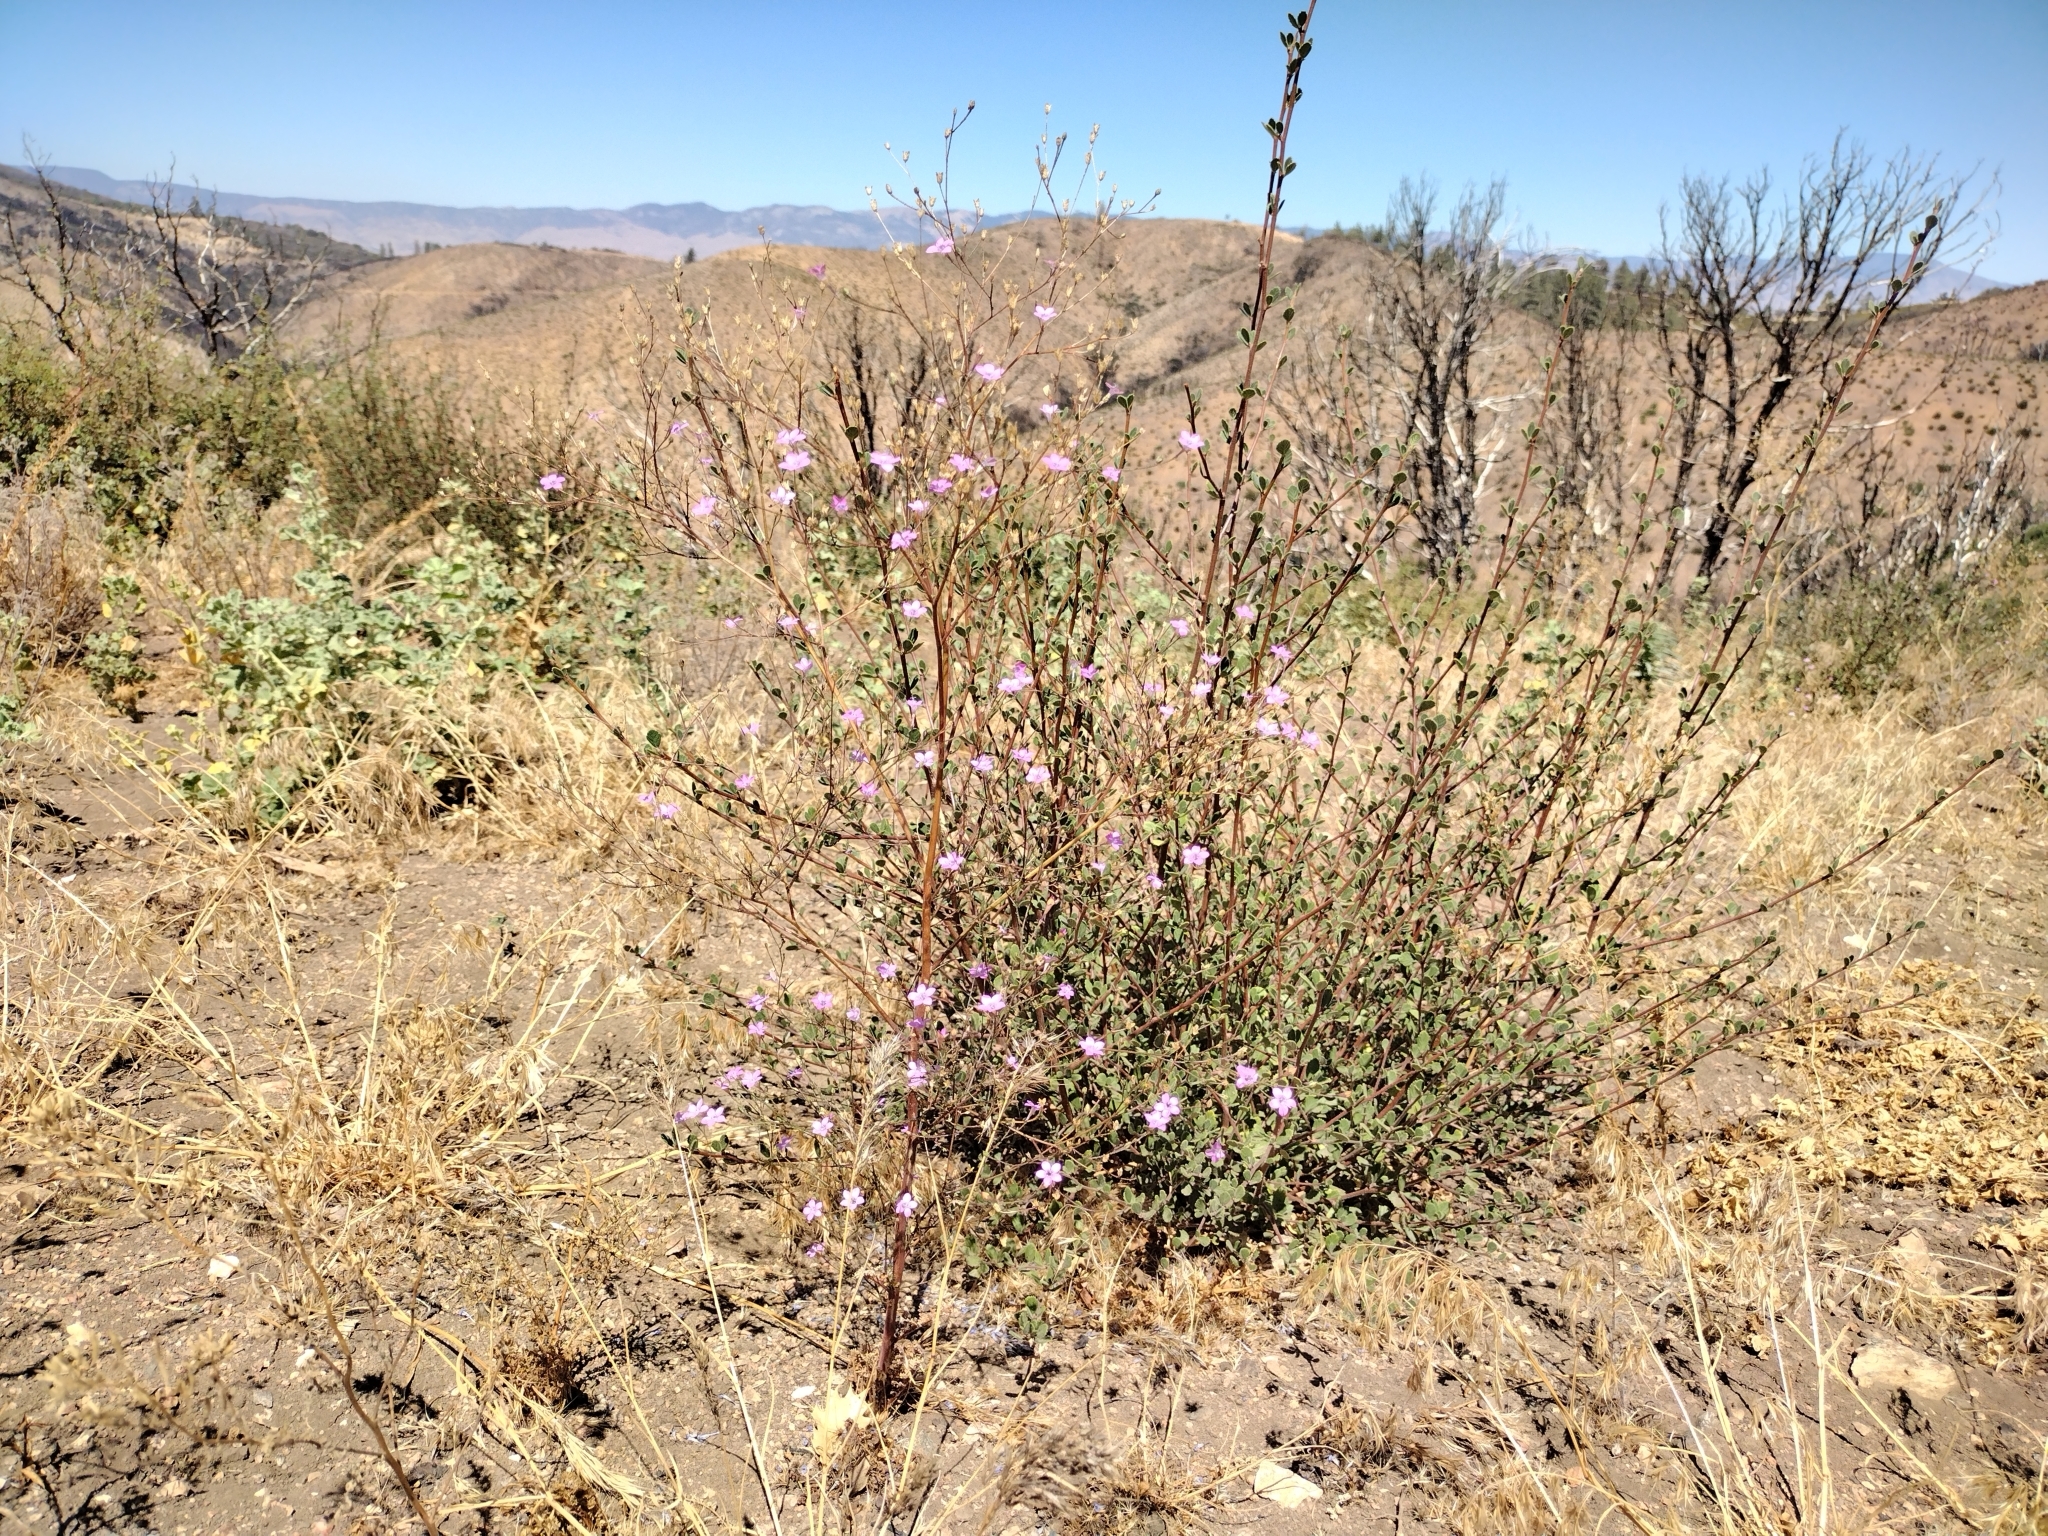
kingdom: Plantae
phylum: Tracheophyta
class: Magnoliopsida
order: Ericales
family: Polemoniaceae
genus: Saltugilia
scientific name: Saltugilia splendens
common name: Grinnell's gilia
